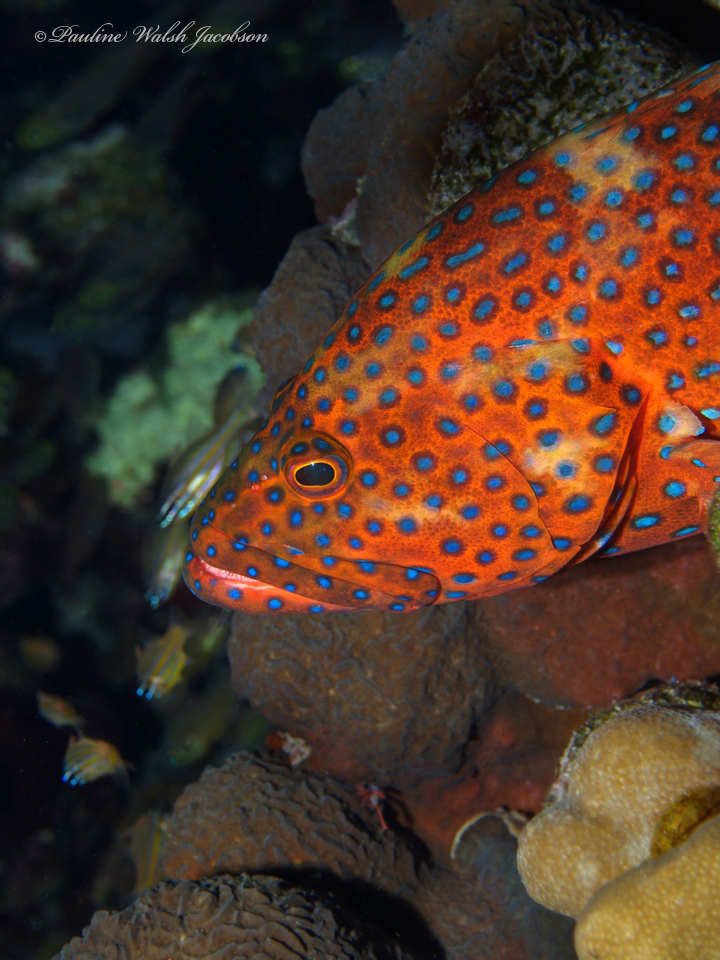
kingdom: Animalia
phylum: Chordata
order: Perciformes
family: Serranidae
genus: Cephalopholis
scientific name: Cephalopholis miniata
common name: Coral hind
